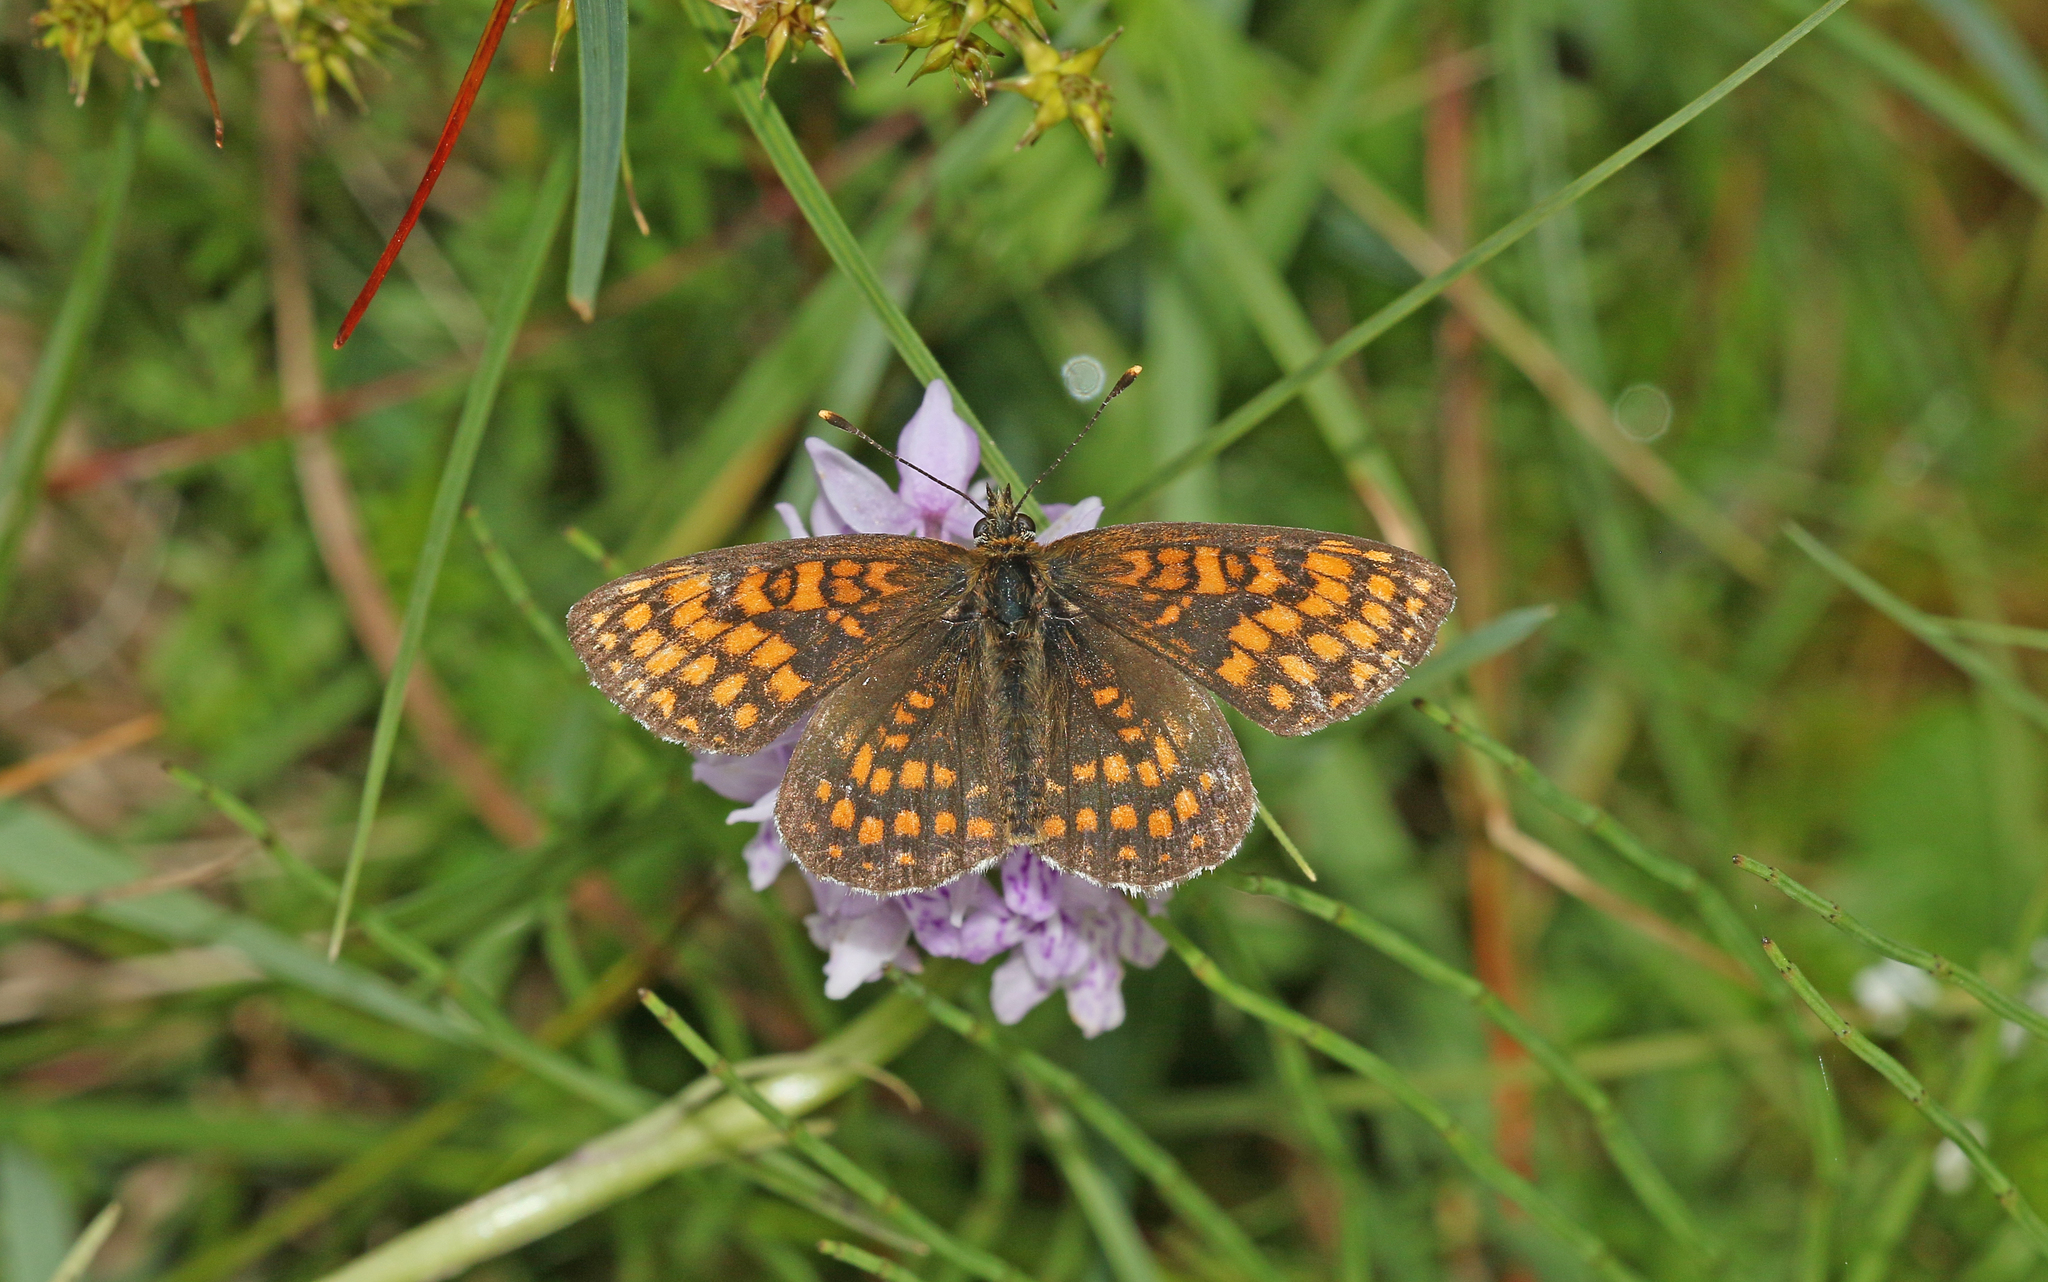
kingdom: Animalia
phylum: Arthropoda
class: Insecta
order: Lepidoptera
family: Nymphalidae
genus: Melitaea
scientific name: Melitaea athalia
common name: Heath fritillary
